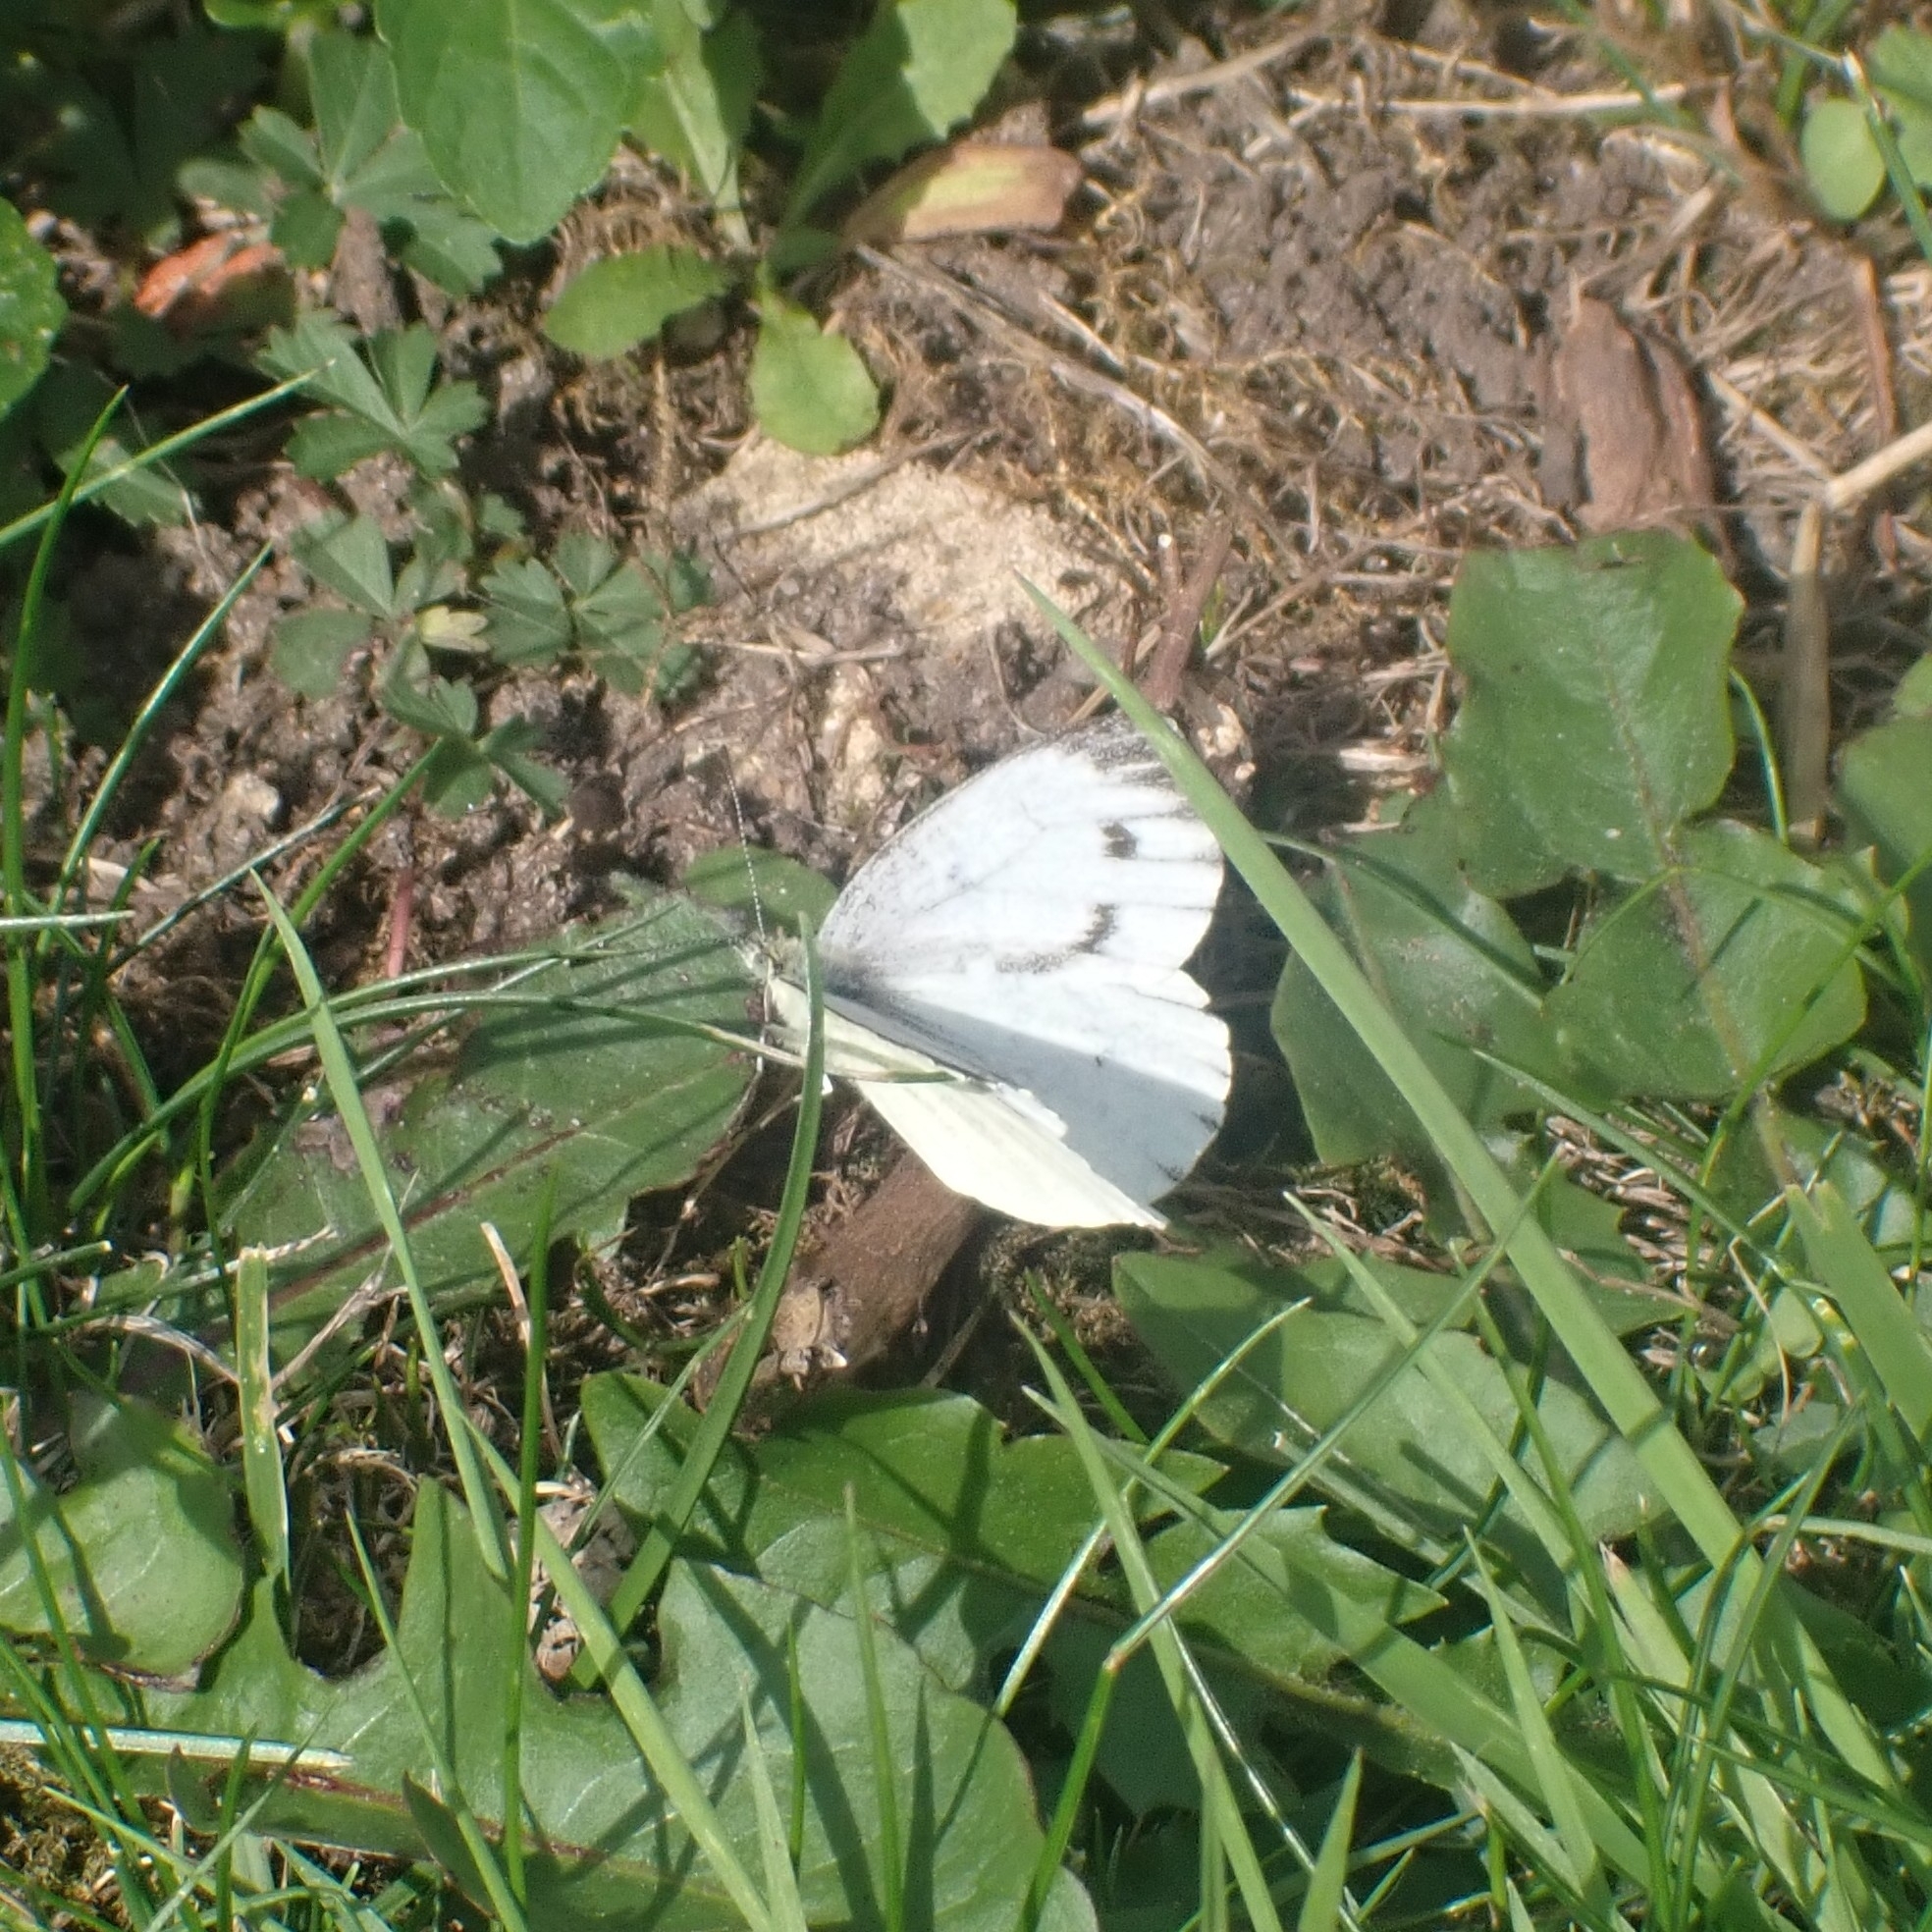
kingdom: Animalia
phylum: Arthropoda
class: Insecta
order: Lepidoptera
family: Pieridae
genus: Pieris
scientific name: Pieris napi
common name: Green-veined white
